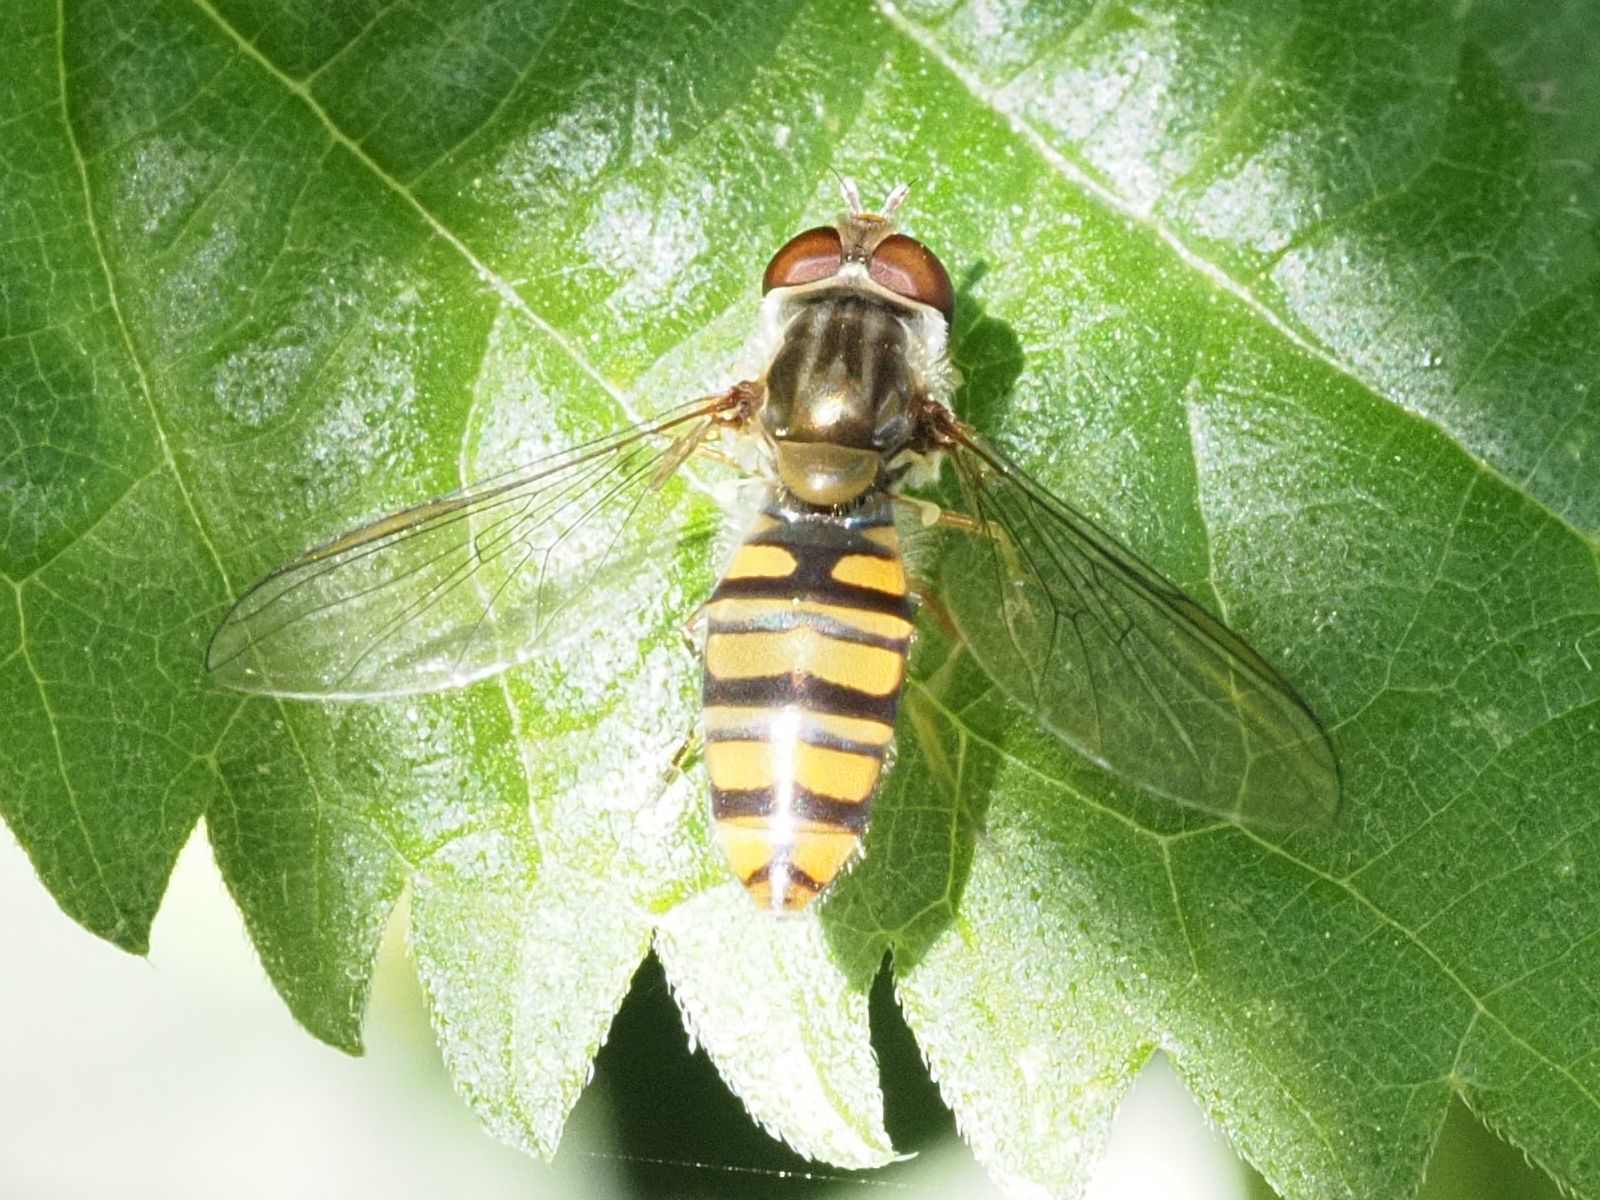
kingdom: Animalia
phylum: Arthropoda
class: Insecta
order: Diptera
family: Syrphidae
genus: Episyrphus
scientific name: Episyrphus balteatus
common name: Marmalade hoverfly
